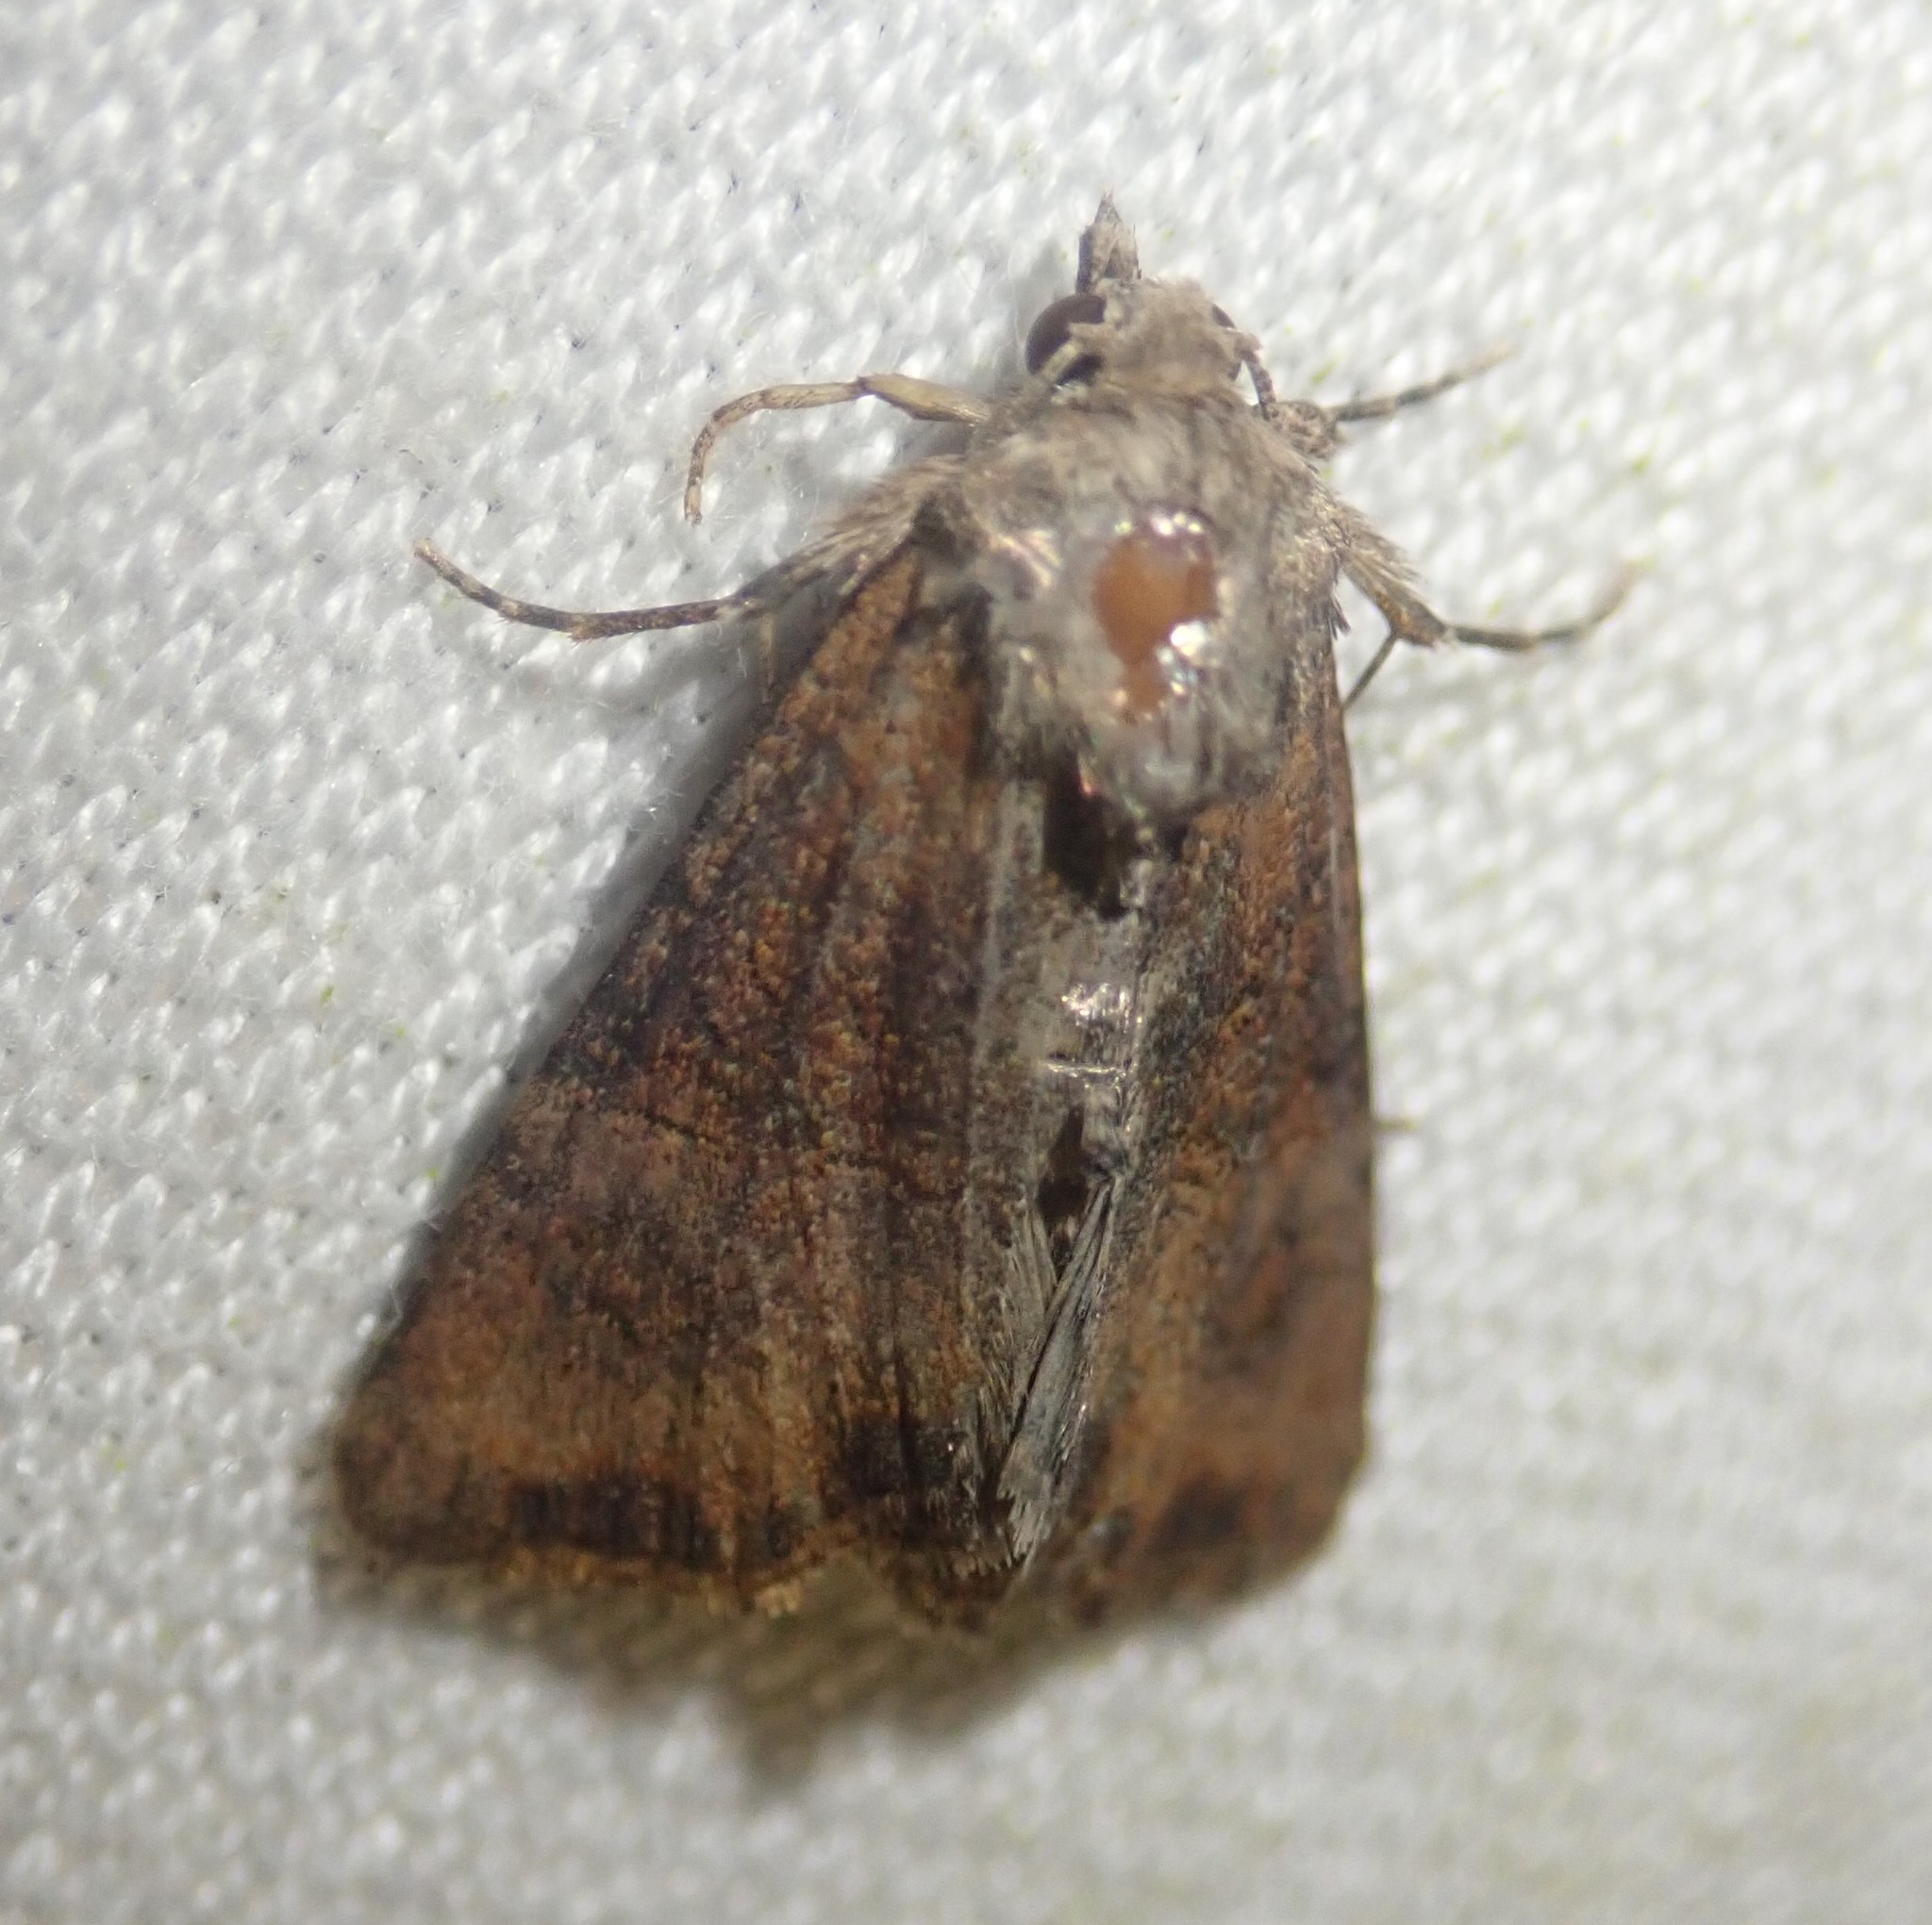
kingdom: Animalia
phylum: Arthropoda
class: Insecta
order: Lepidoptera
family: Noctuidae
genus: Mesoligia
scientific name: Mesoligia furuncula
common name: Cloaked minor
